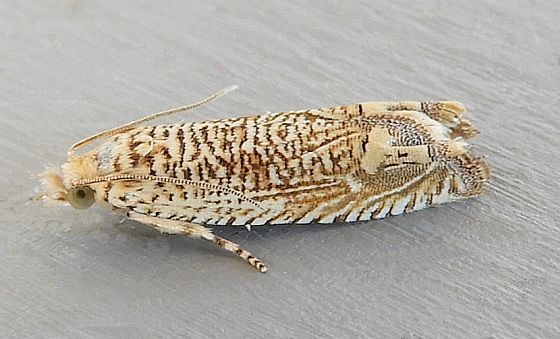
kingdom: Animalia
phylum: Arthropoda
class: Insecta
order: Lepidoptera
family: Tortricidae
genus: Eucosma
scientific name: Eucosma argutipunctana
